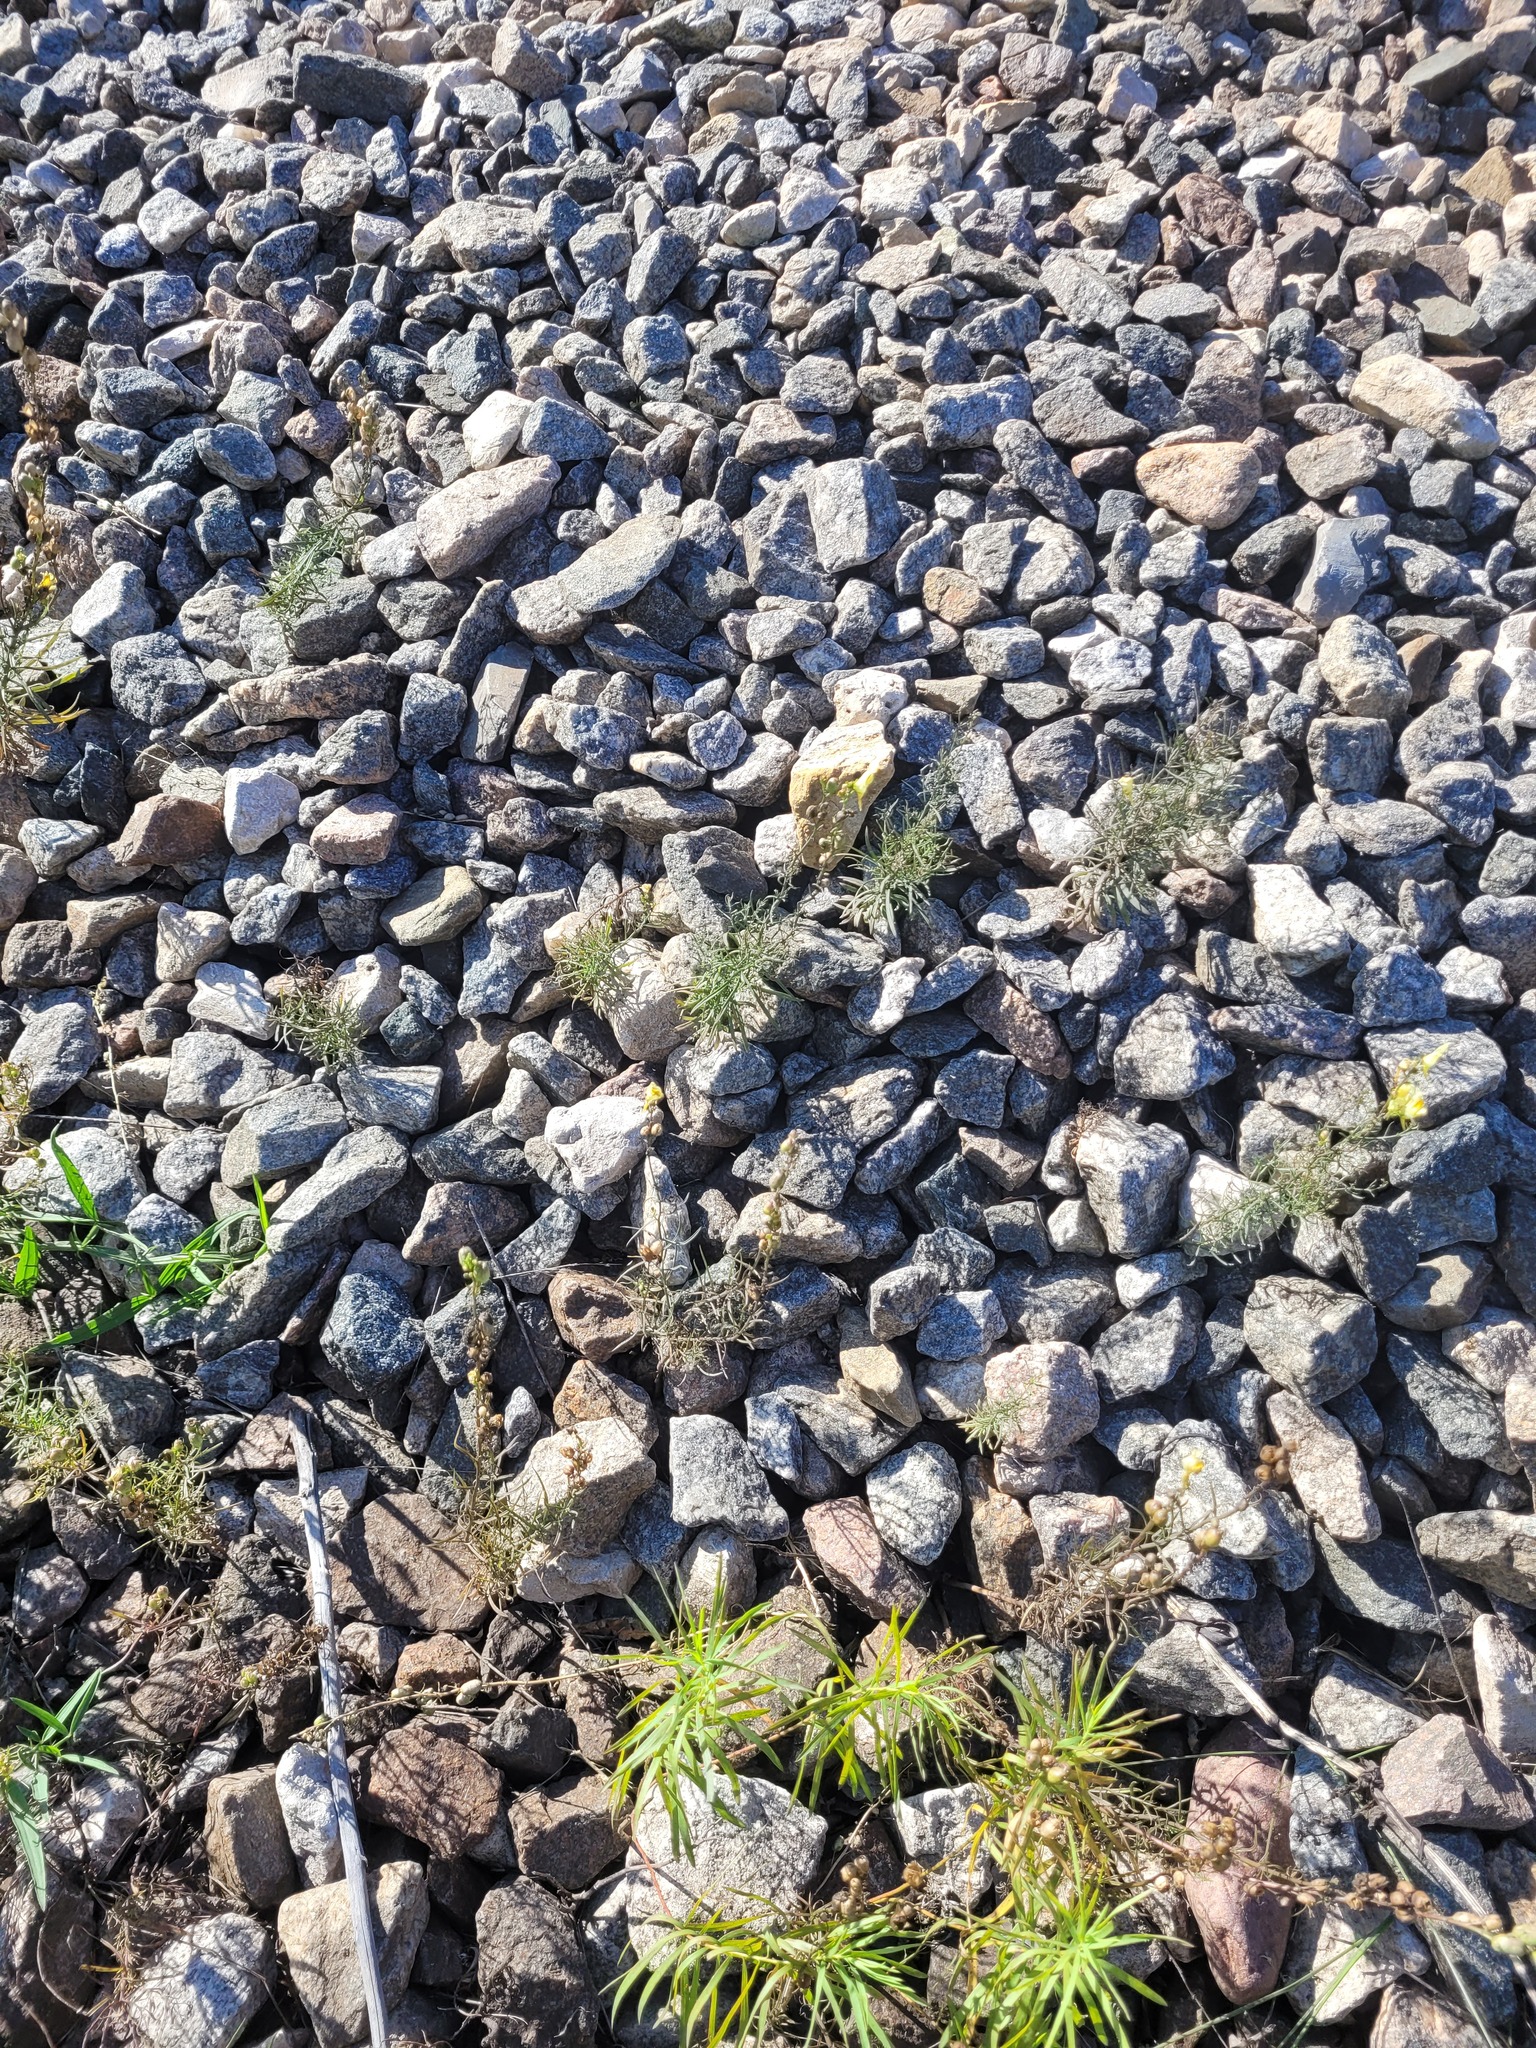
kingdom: Plantae
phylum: Tracheophyta
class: Magnoliopsida
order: Lamiales
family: Plantaginaceae
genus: Linaria
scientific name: Linaria vulgaris
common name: Butter and eggs
